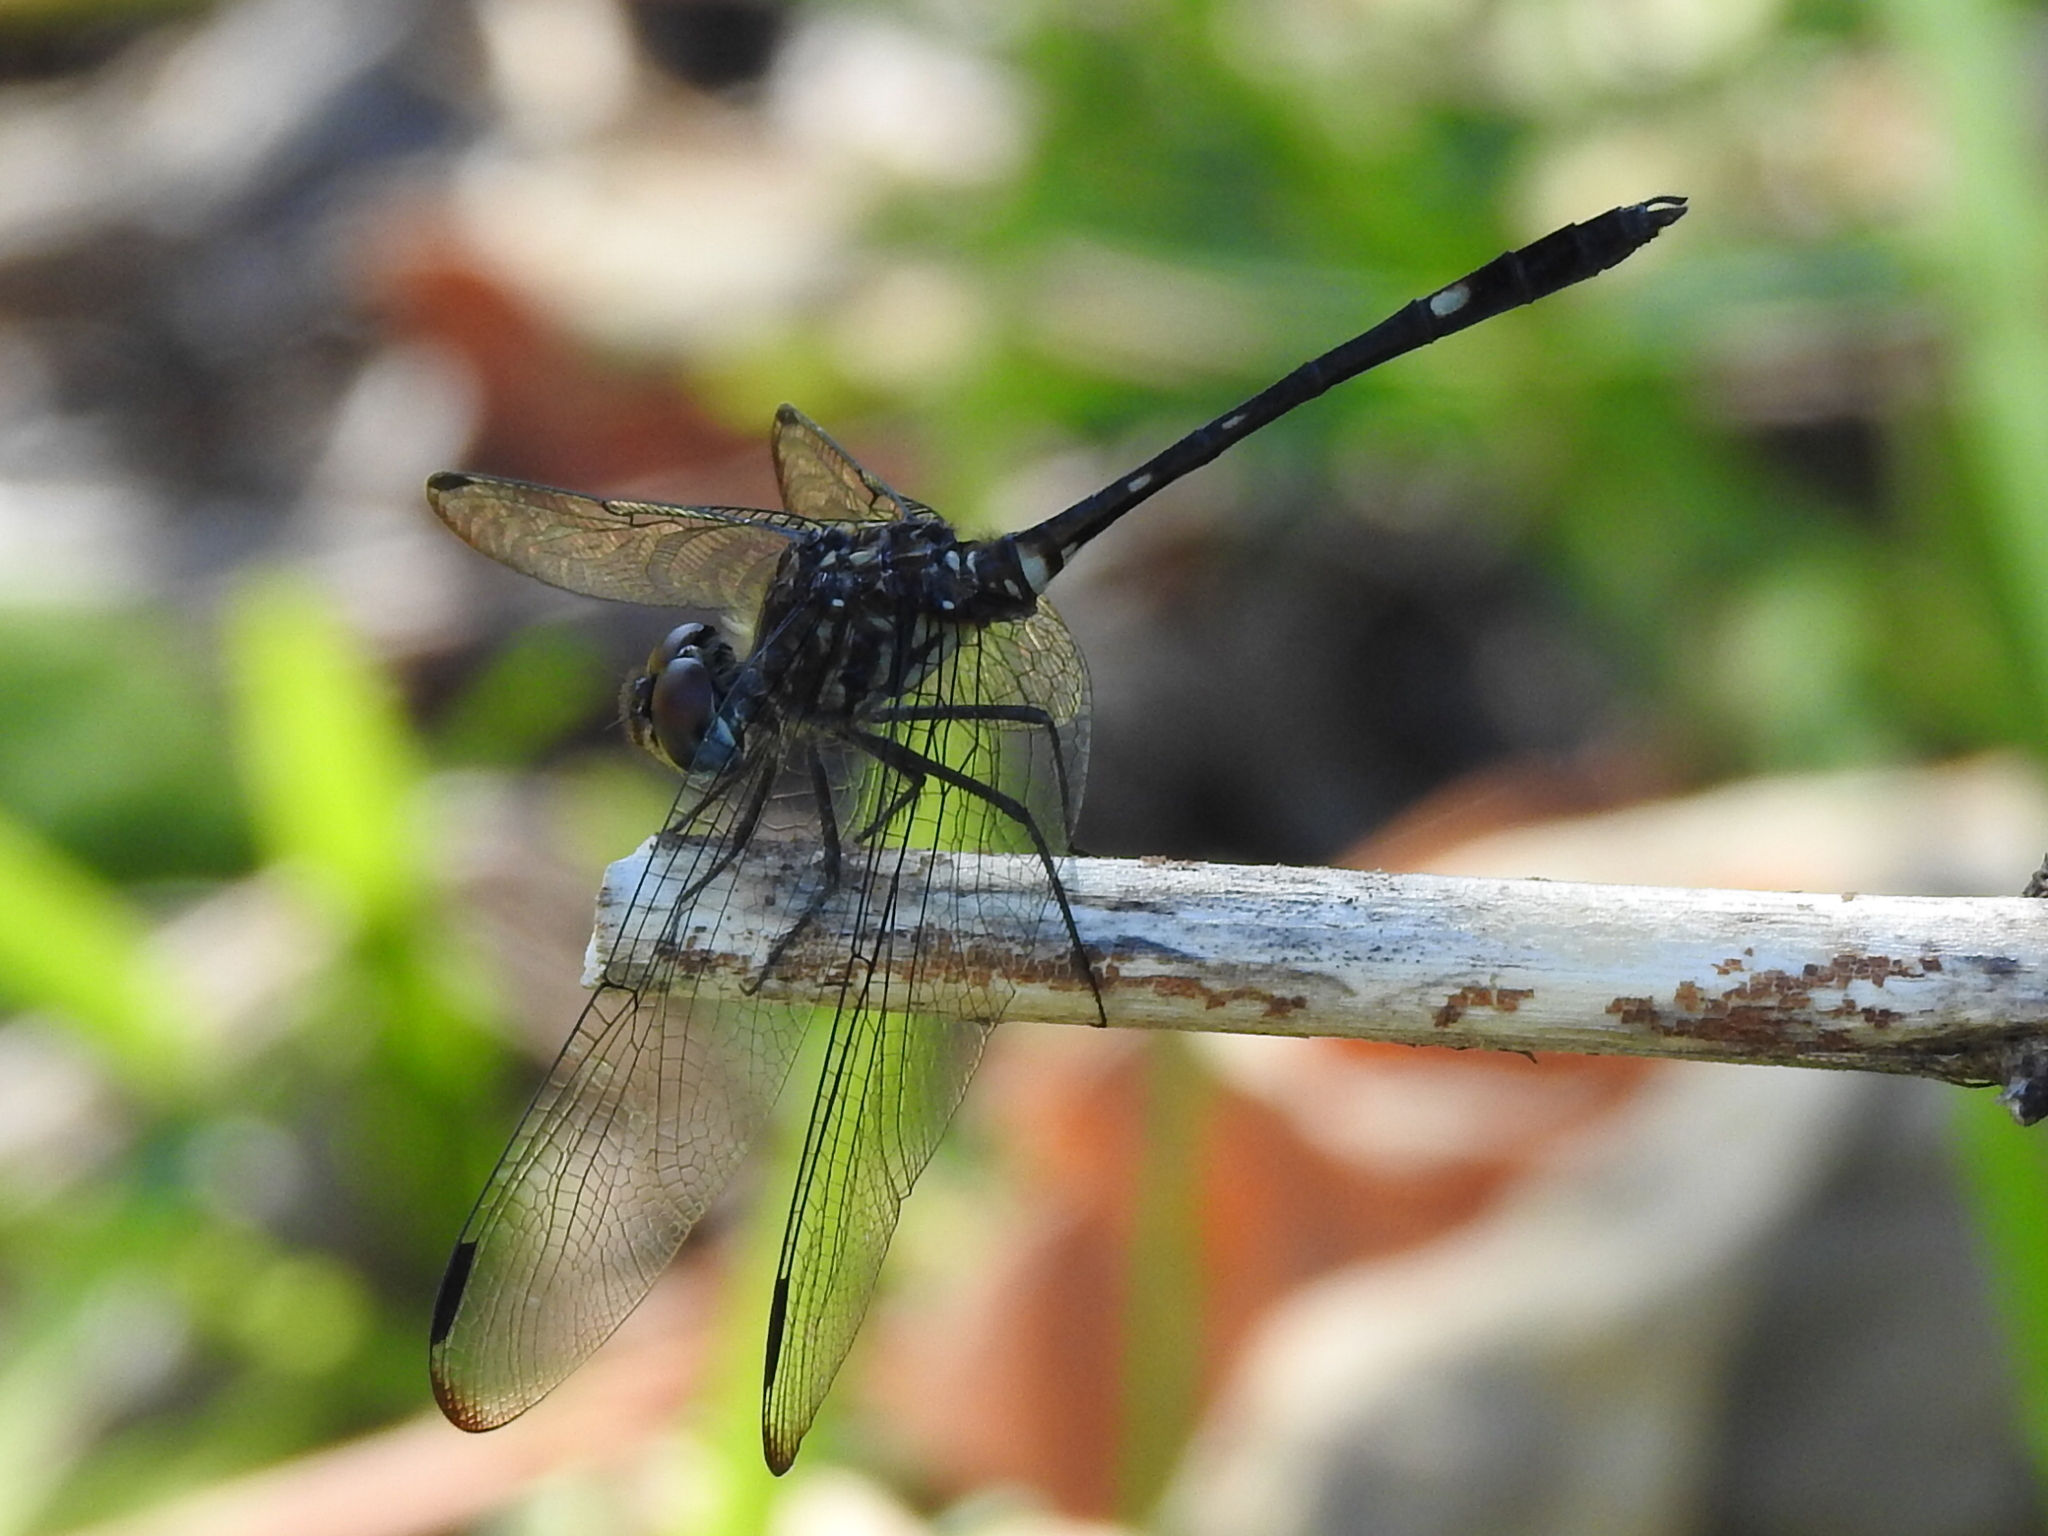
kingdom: Animalia
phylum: Arthropoda
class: Insecta
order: Odonata
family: Libellulidae
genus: Dythemis
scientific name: Dythemis velox
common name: Swift setwing
